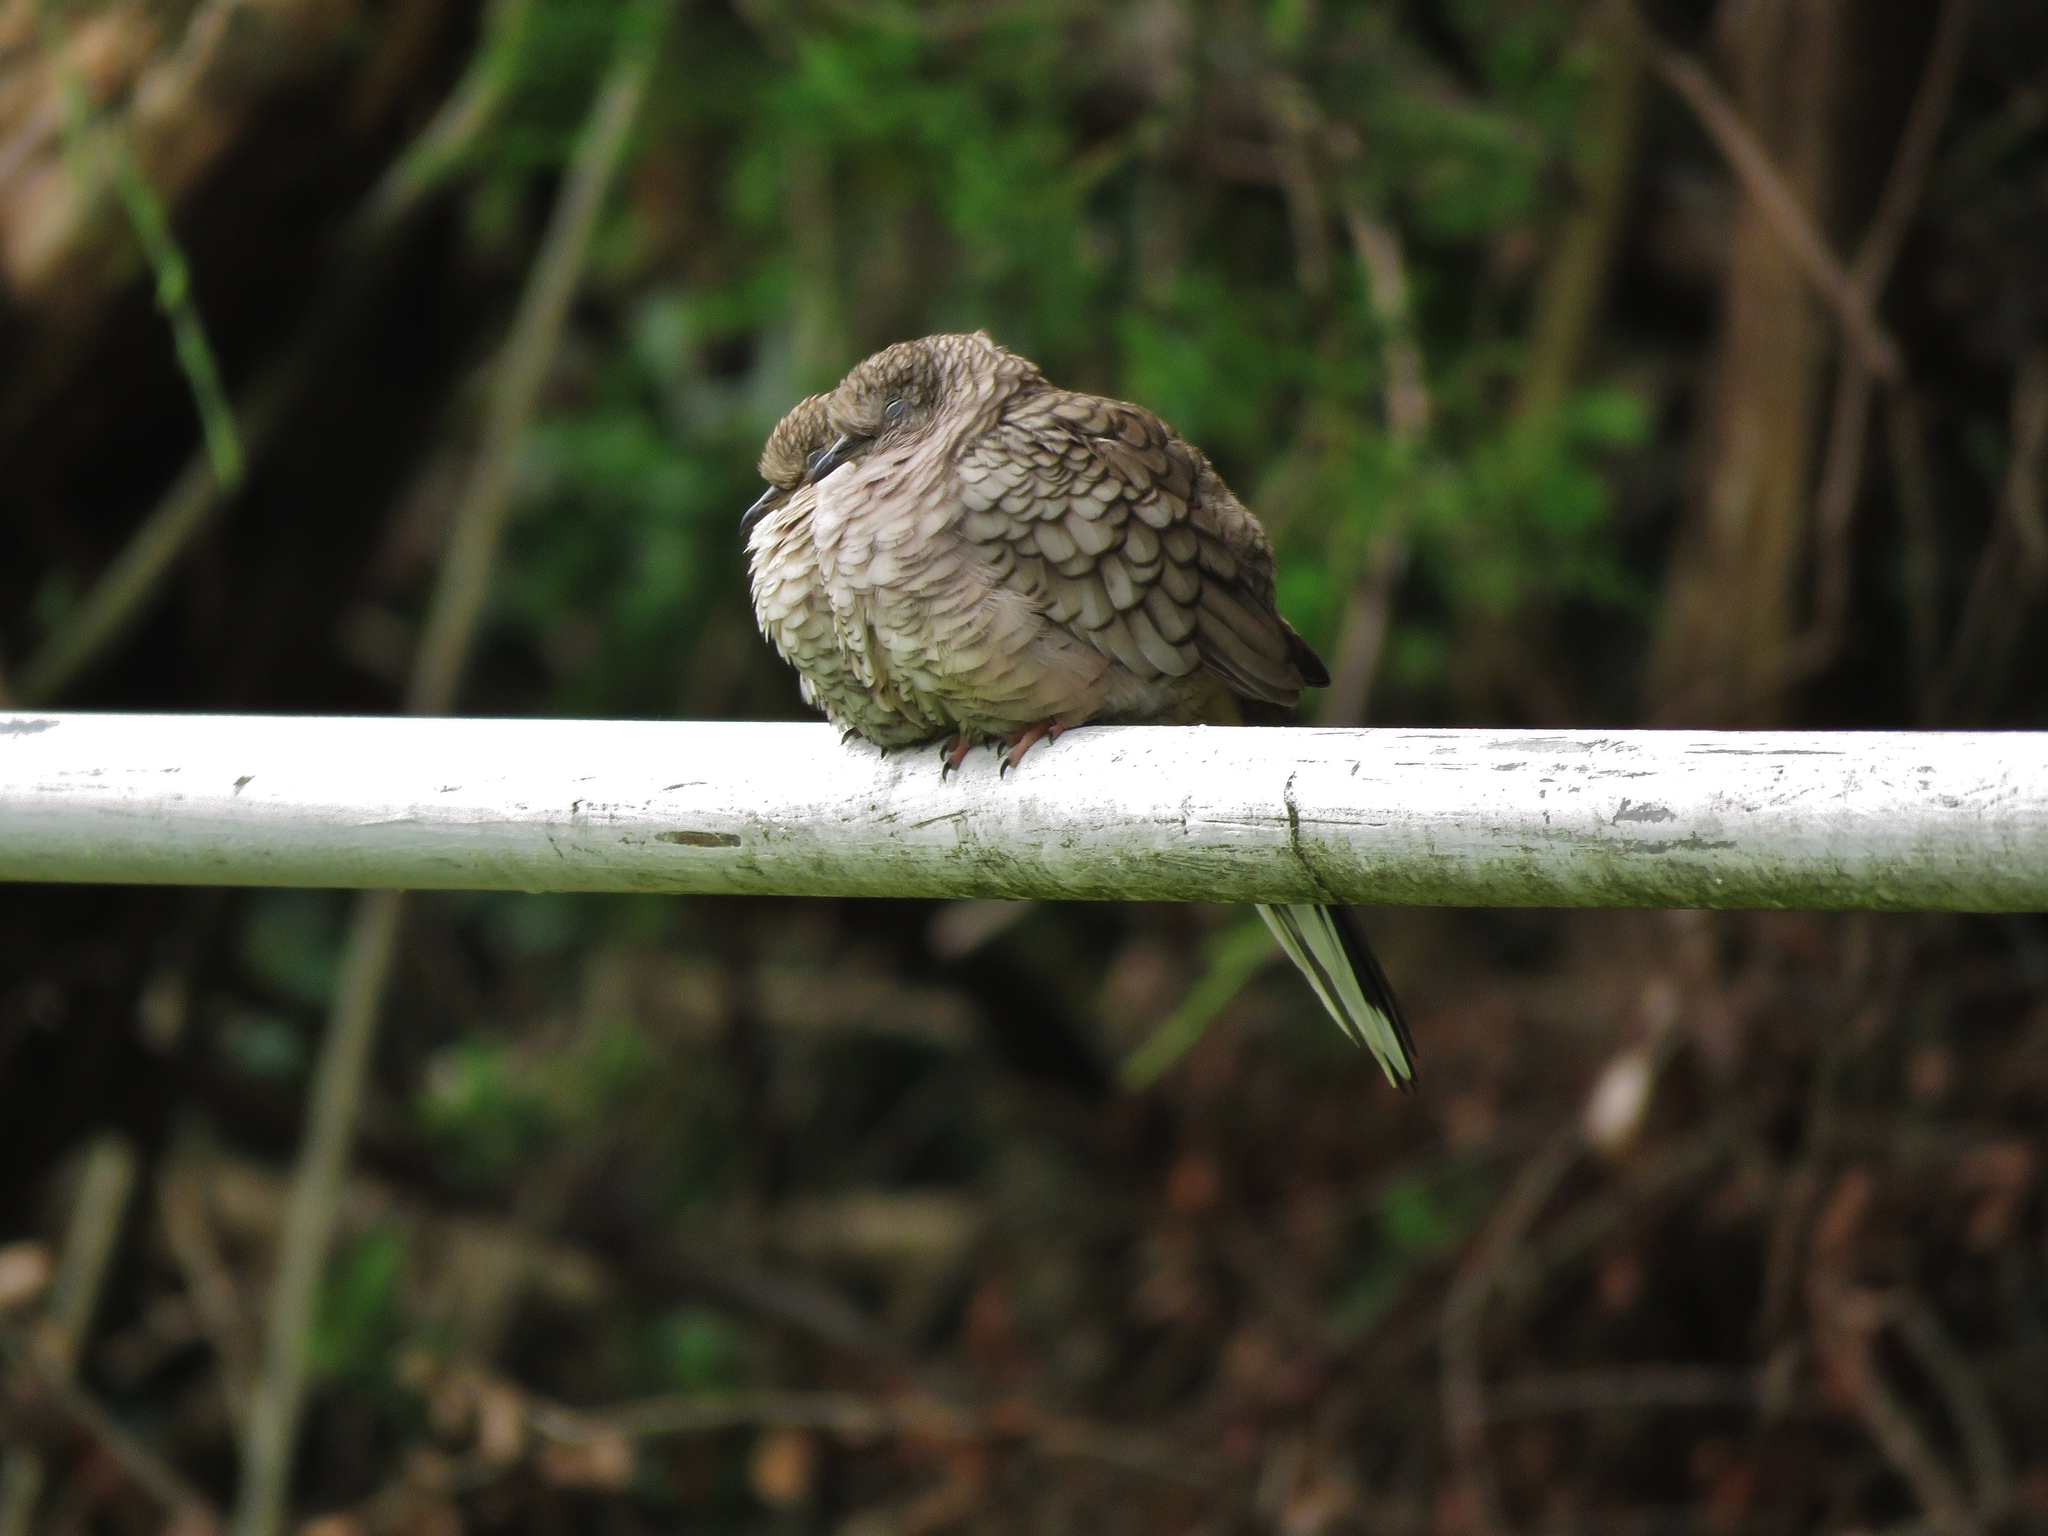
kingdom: Animalia
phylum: Chordata
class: Aves
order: Columbiformes
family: Columbidae
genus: Columbina
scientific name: Columbina inca
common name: Inca dove
